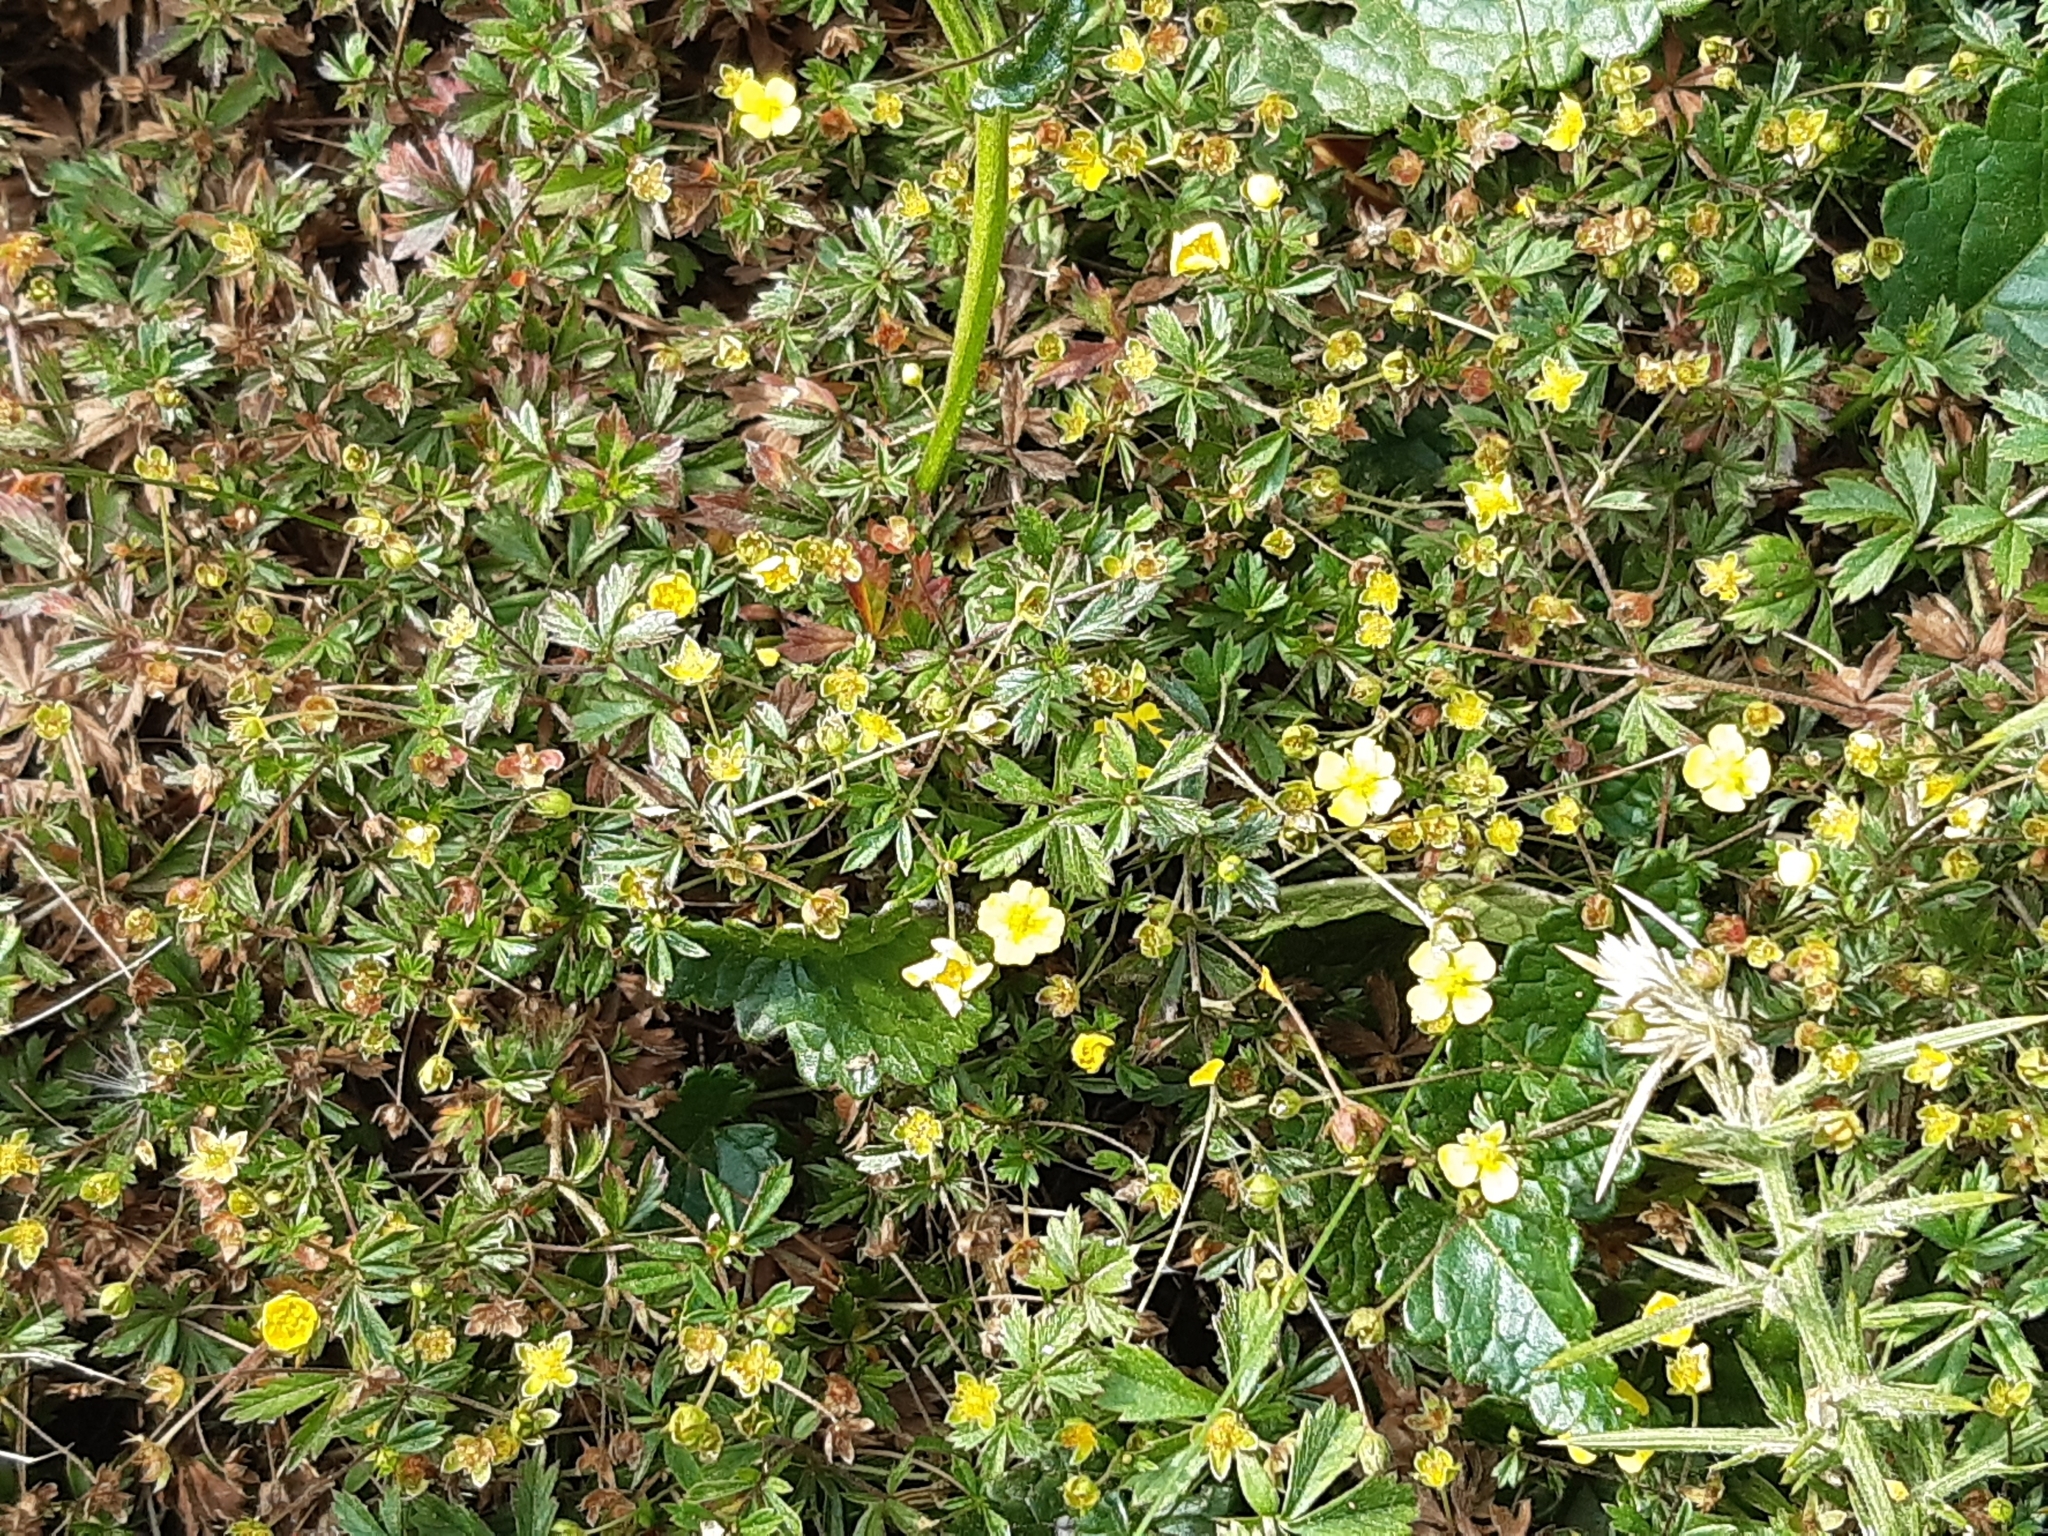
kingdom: Plantae
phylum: Tracheophyta
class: Magnoliopsida
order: Rosales
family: Rosaceae
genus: Potentilla
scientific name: Potentilla erecta
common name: Tormentil
